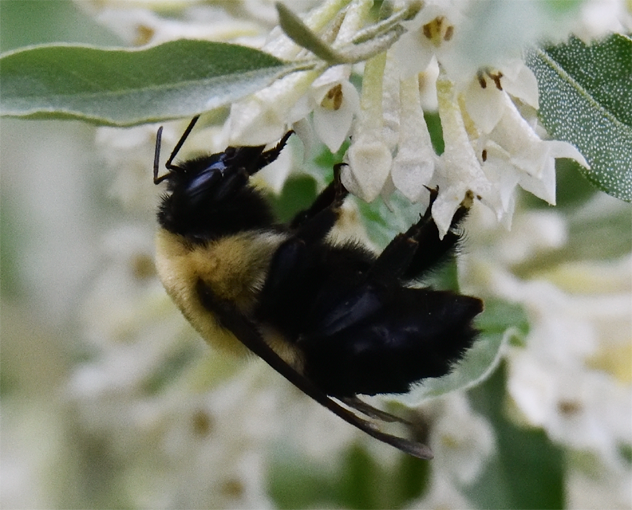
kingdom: Animalia
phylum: Arthropoda
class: Insecta
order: Hymenoptera
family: Apidae
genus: Bombus
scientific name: Bombus griseocollis
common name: Brown-belted bumble bee
